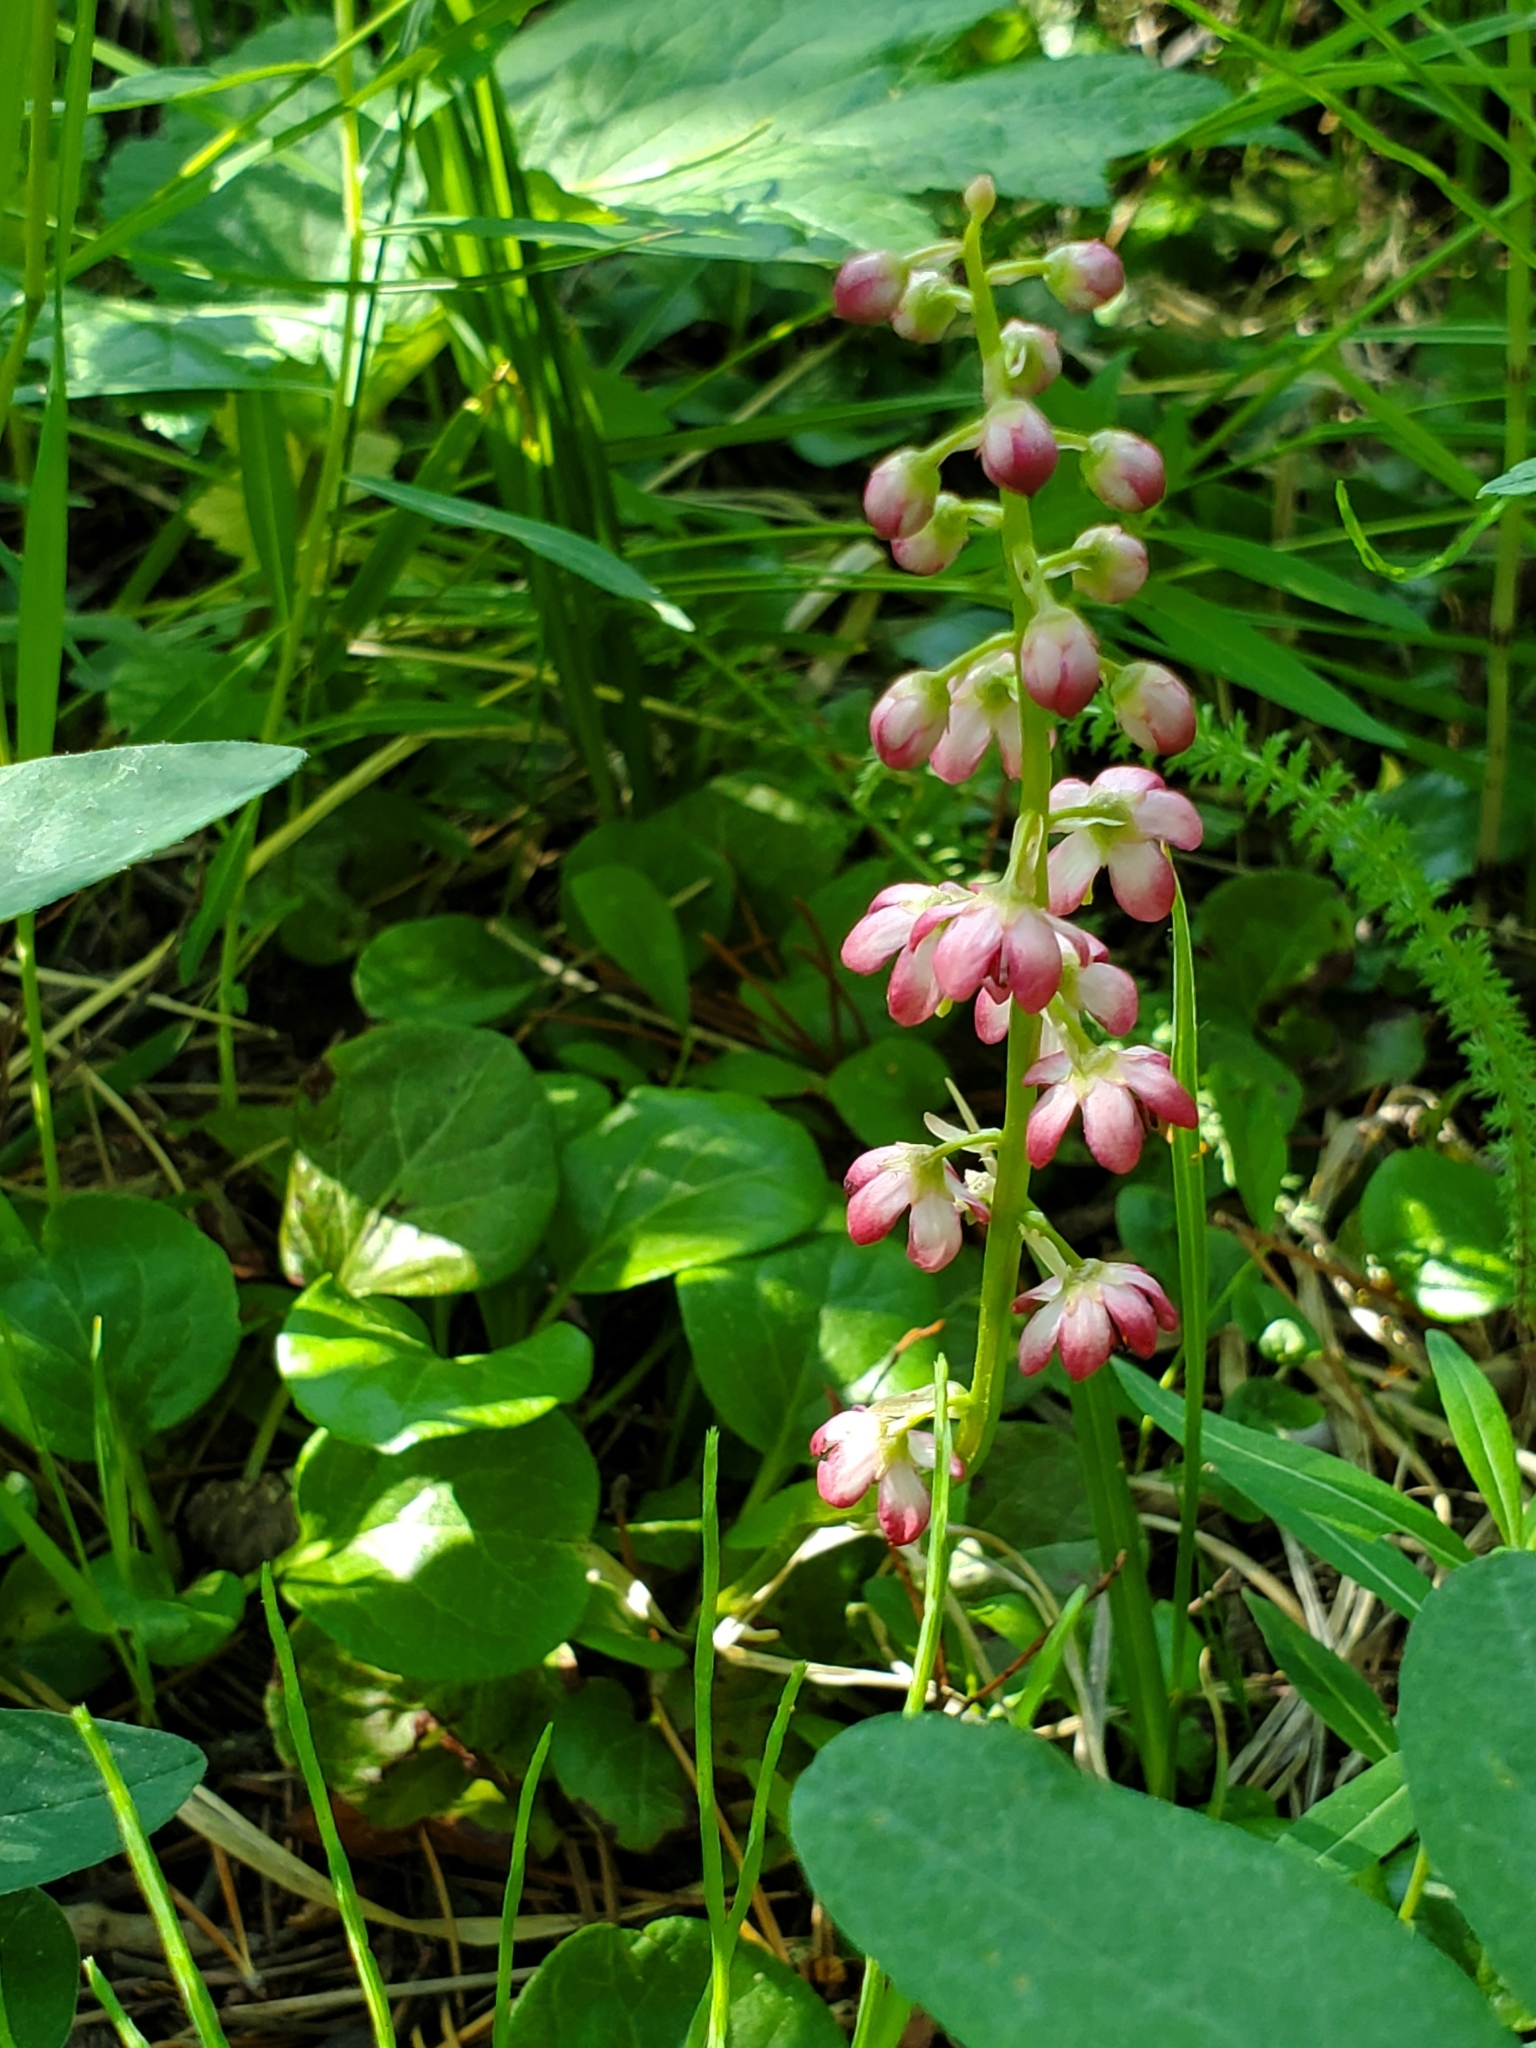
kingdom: Plantae
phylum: Tracheophyta
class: Magnoliopsida
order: Ericales
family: Ericaceae
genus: Pyrola
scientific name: Pyrola asarifolia
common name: Bog wintergreen
